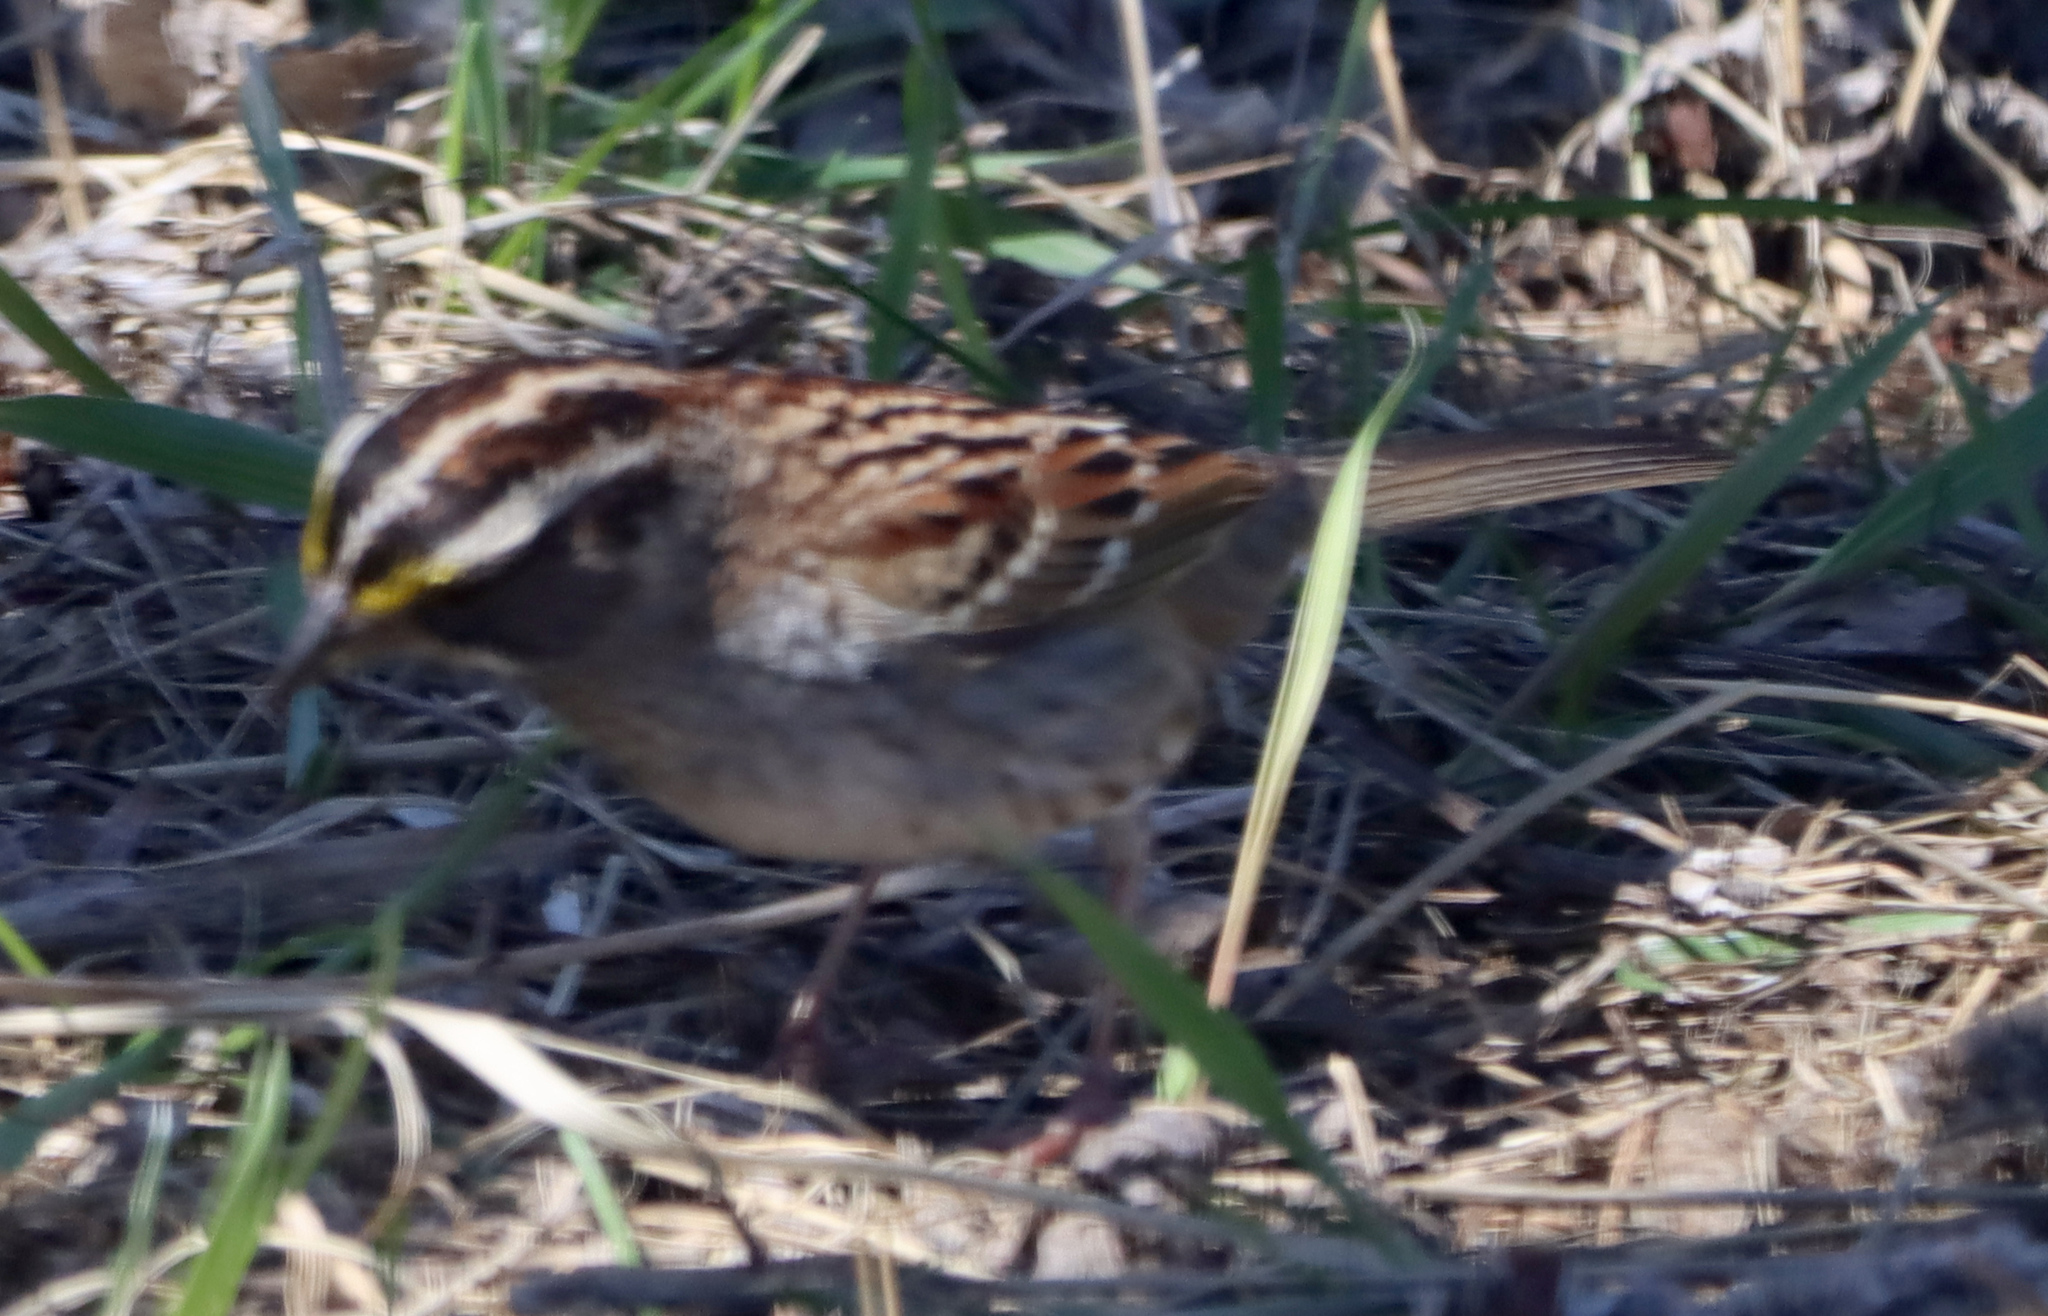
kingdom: Animalia
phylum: Chordata
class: Aves
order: Passeriformes
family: Passerellidae
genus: Zonotrichia
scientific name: Zonotrichia albicollis
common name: White-throated sparrow
